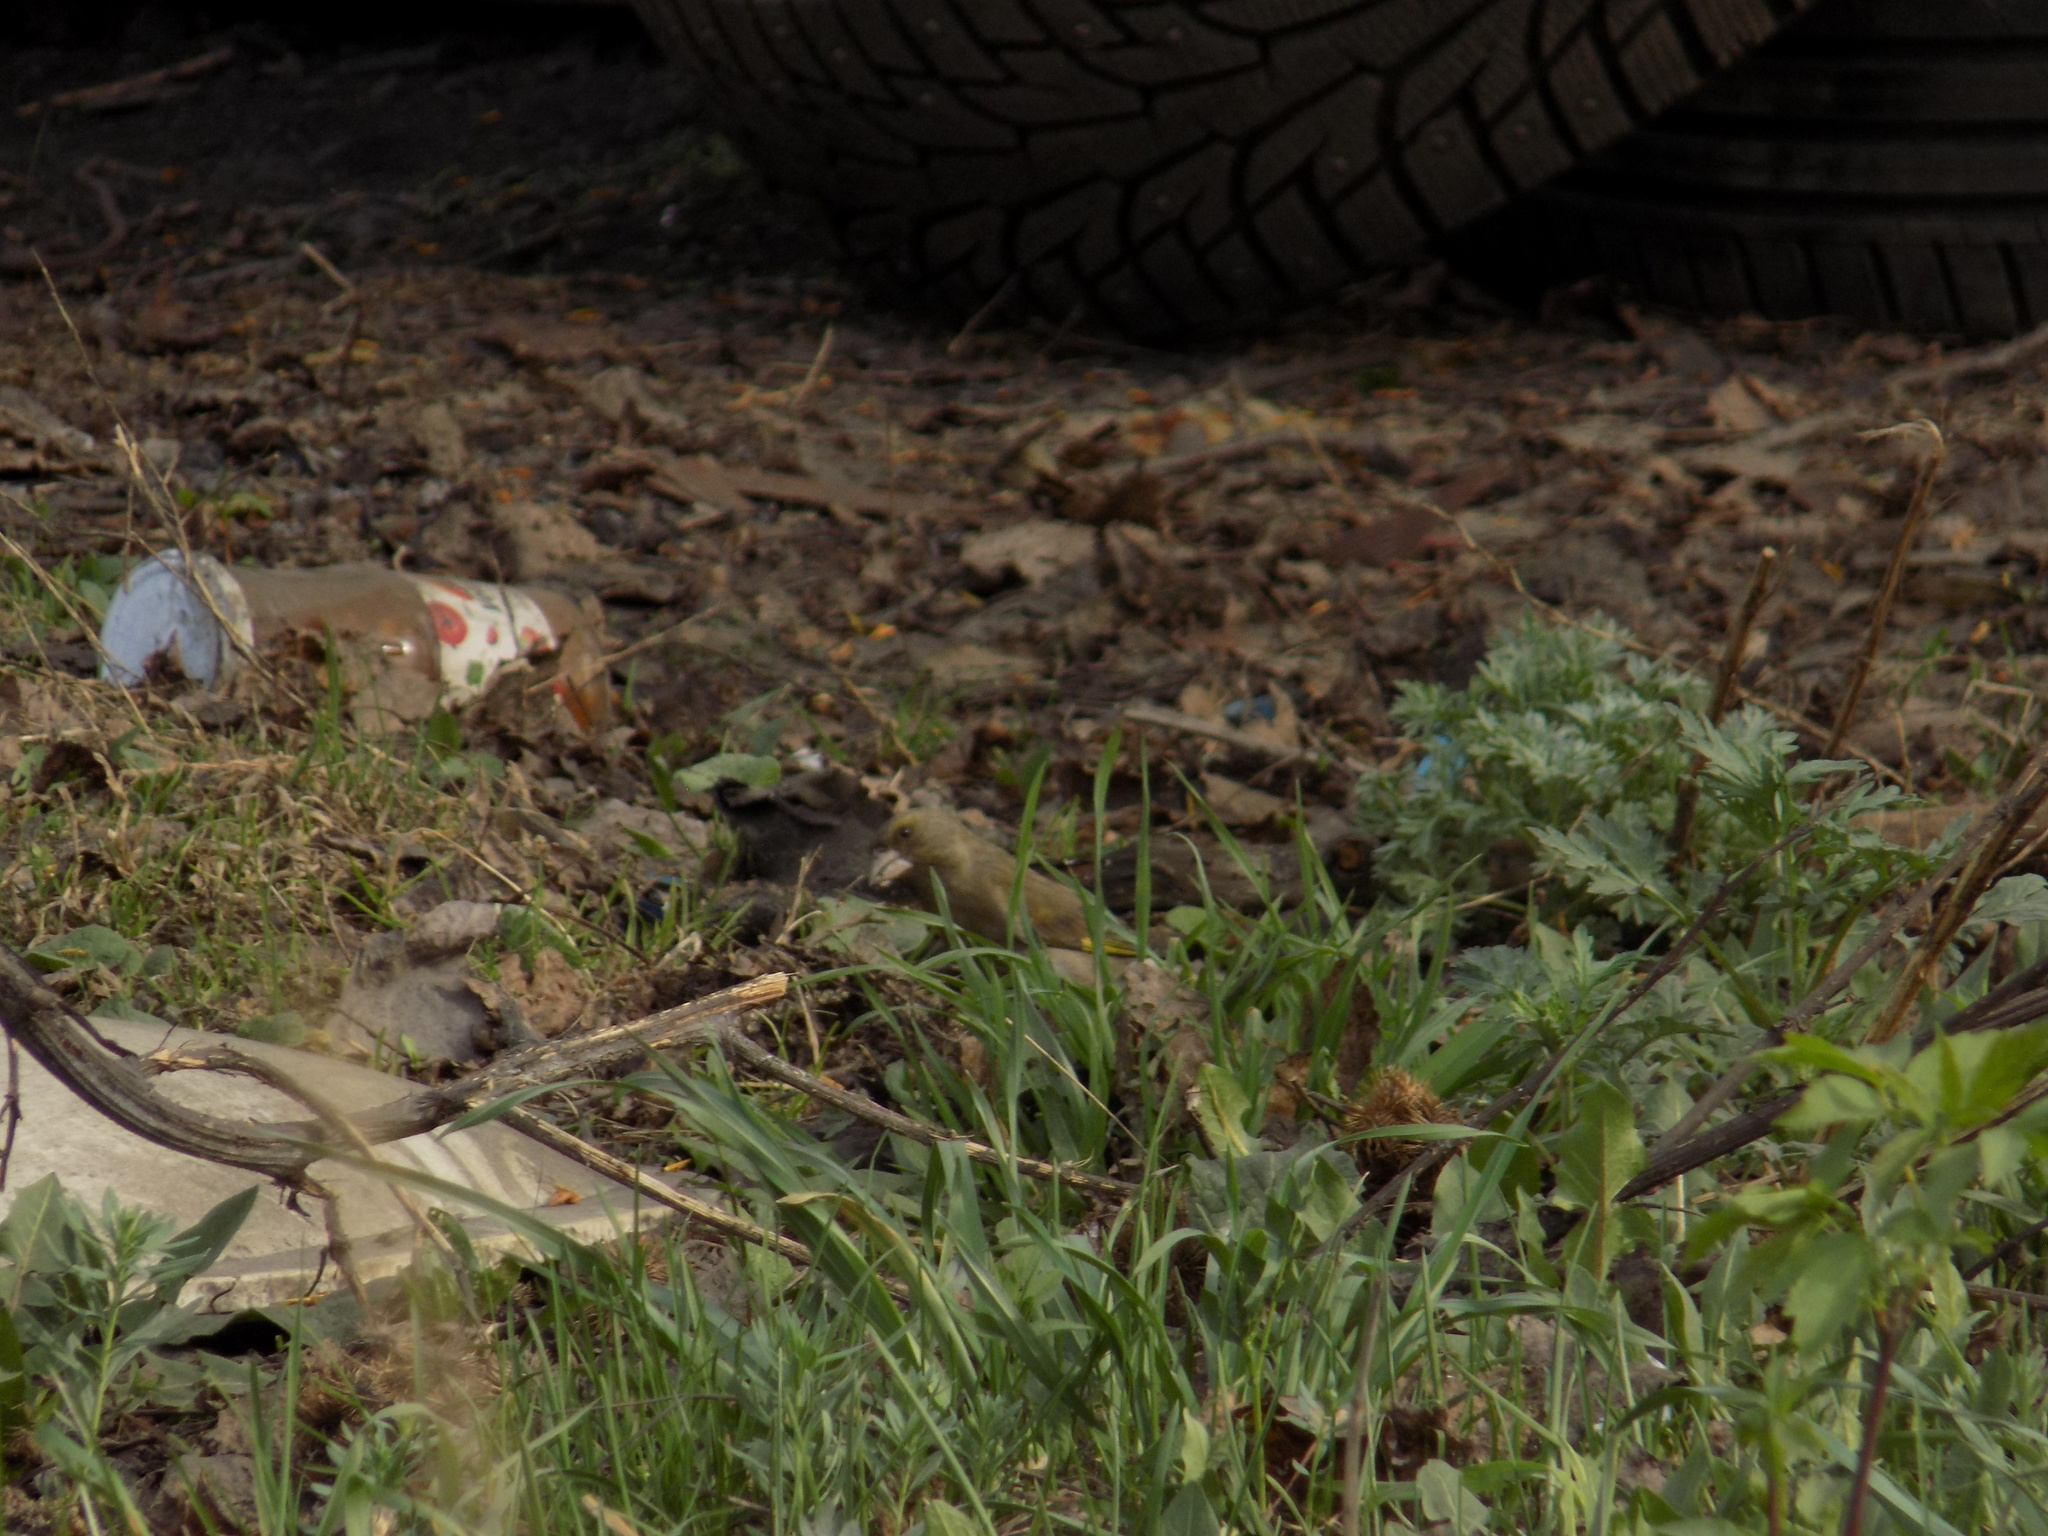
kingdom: Plantae
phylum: Tracheophyta
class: Liliopsida
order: Poales
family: Poaceae
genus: Chloris
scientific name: Chloris chloris
